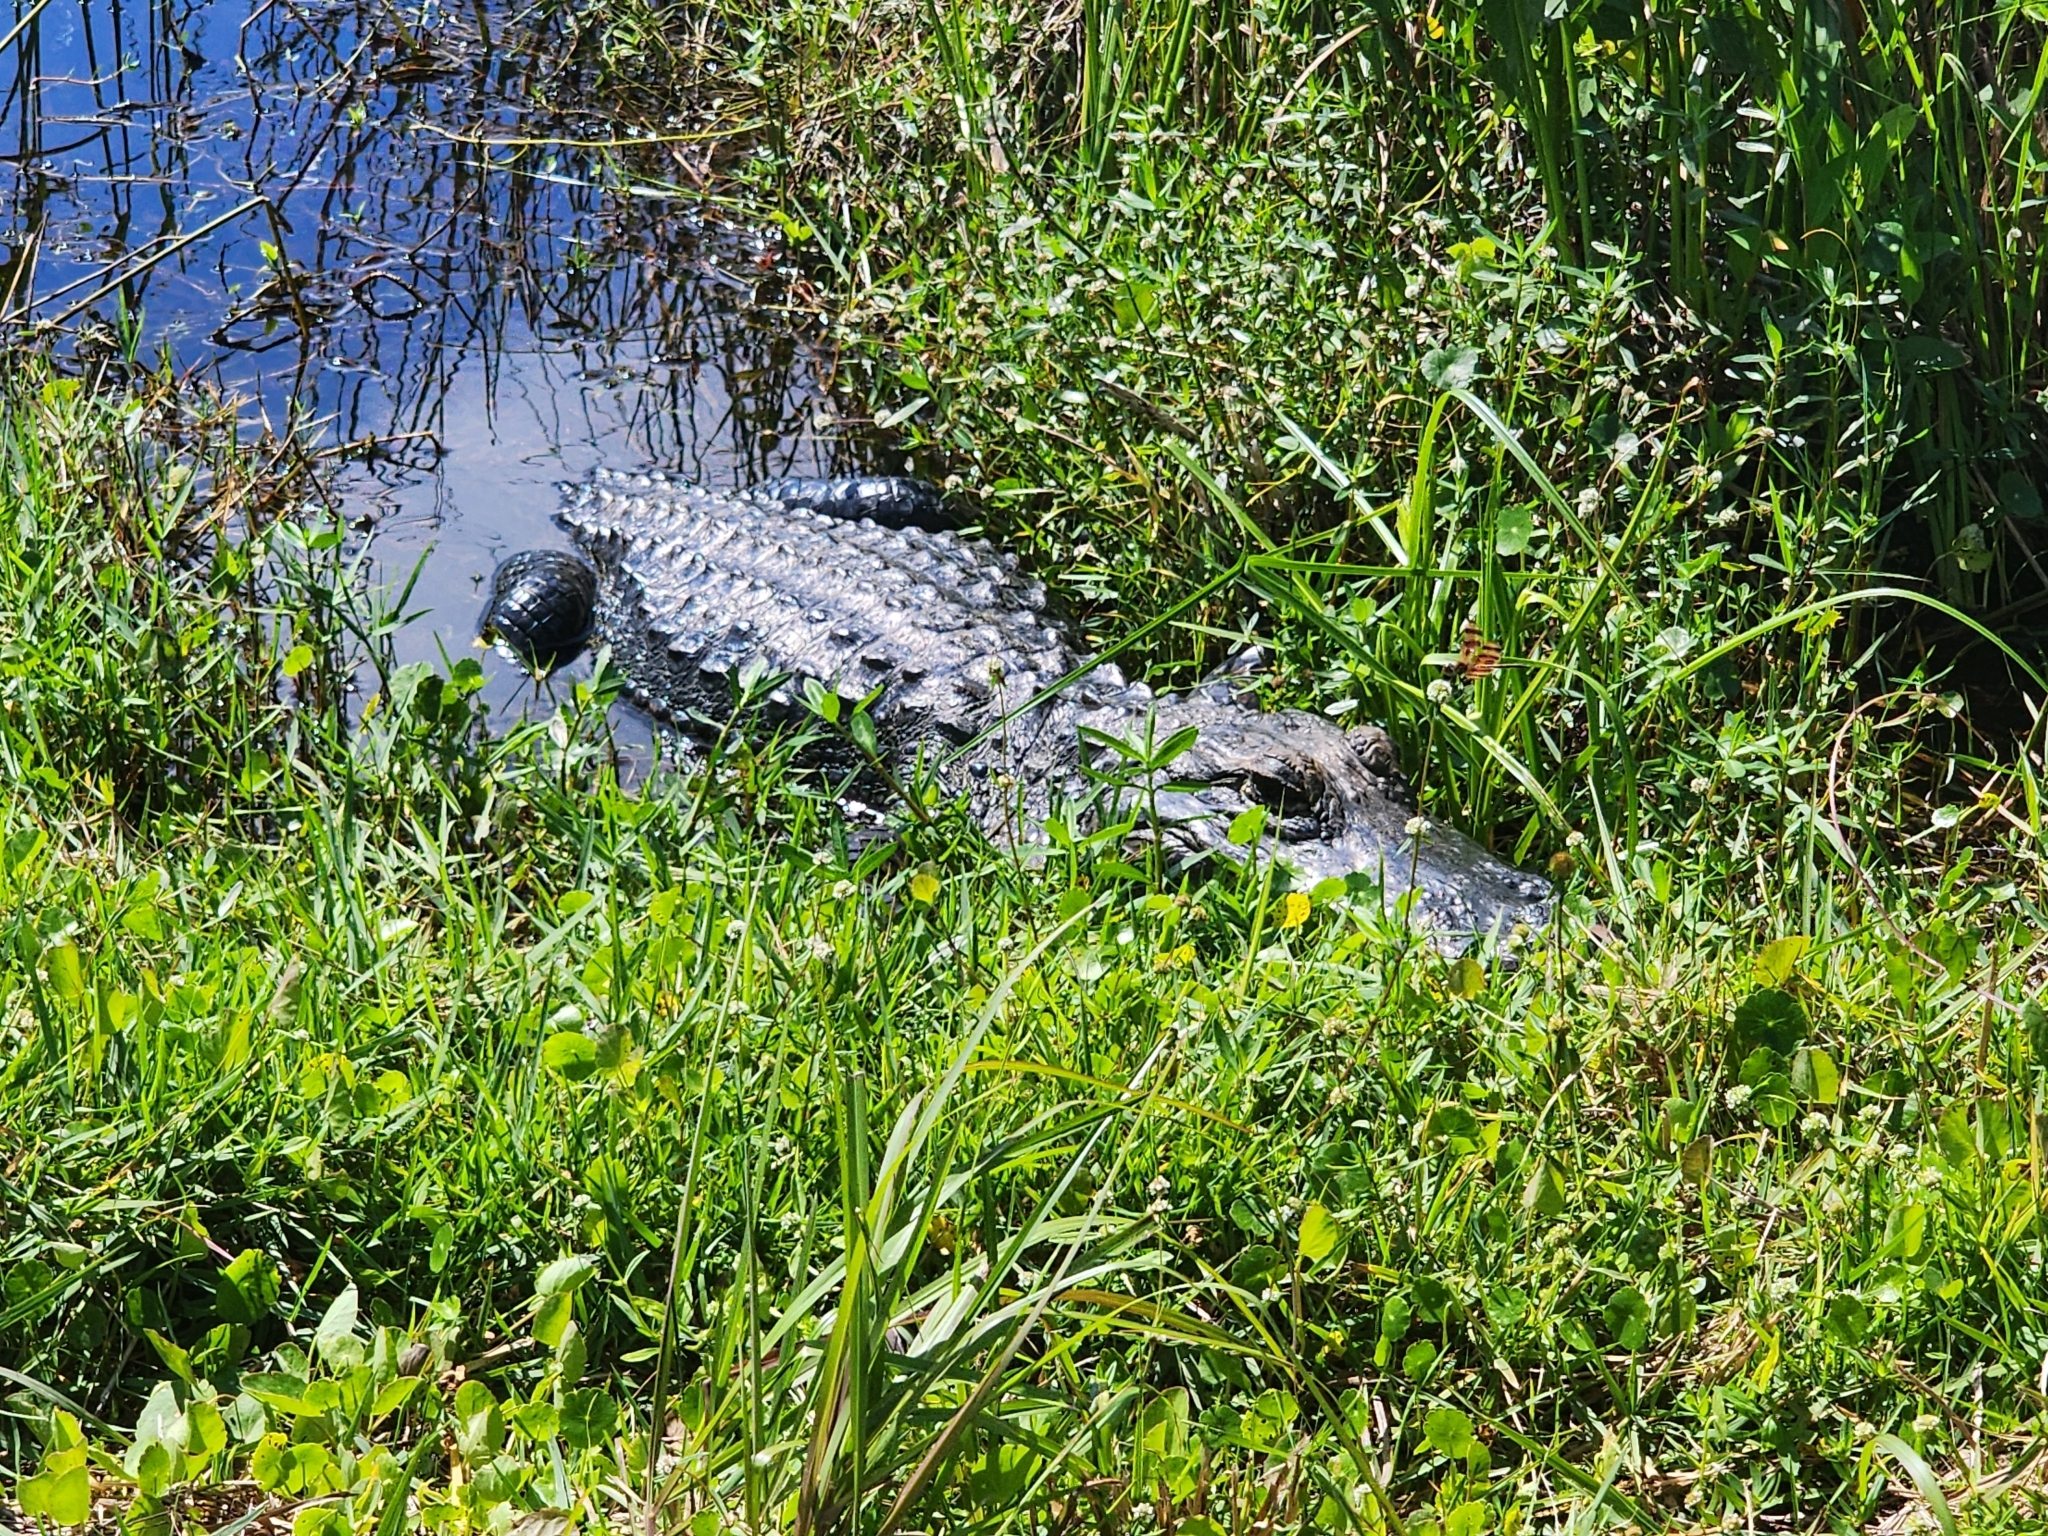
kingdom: Animalia
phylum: Chordata
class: Crocodylia
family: Alligatoridae
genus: Alligator
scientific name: Alligator mississippiensis
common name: American alligator
